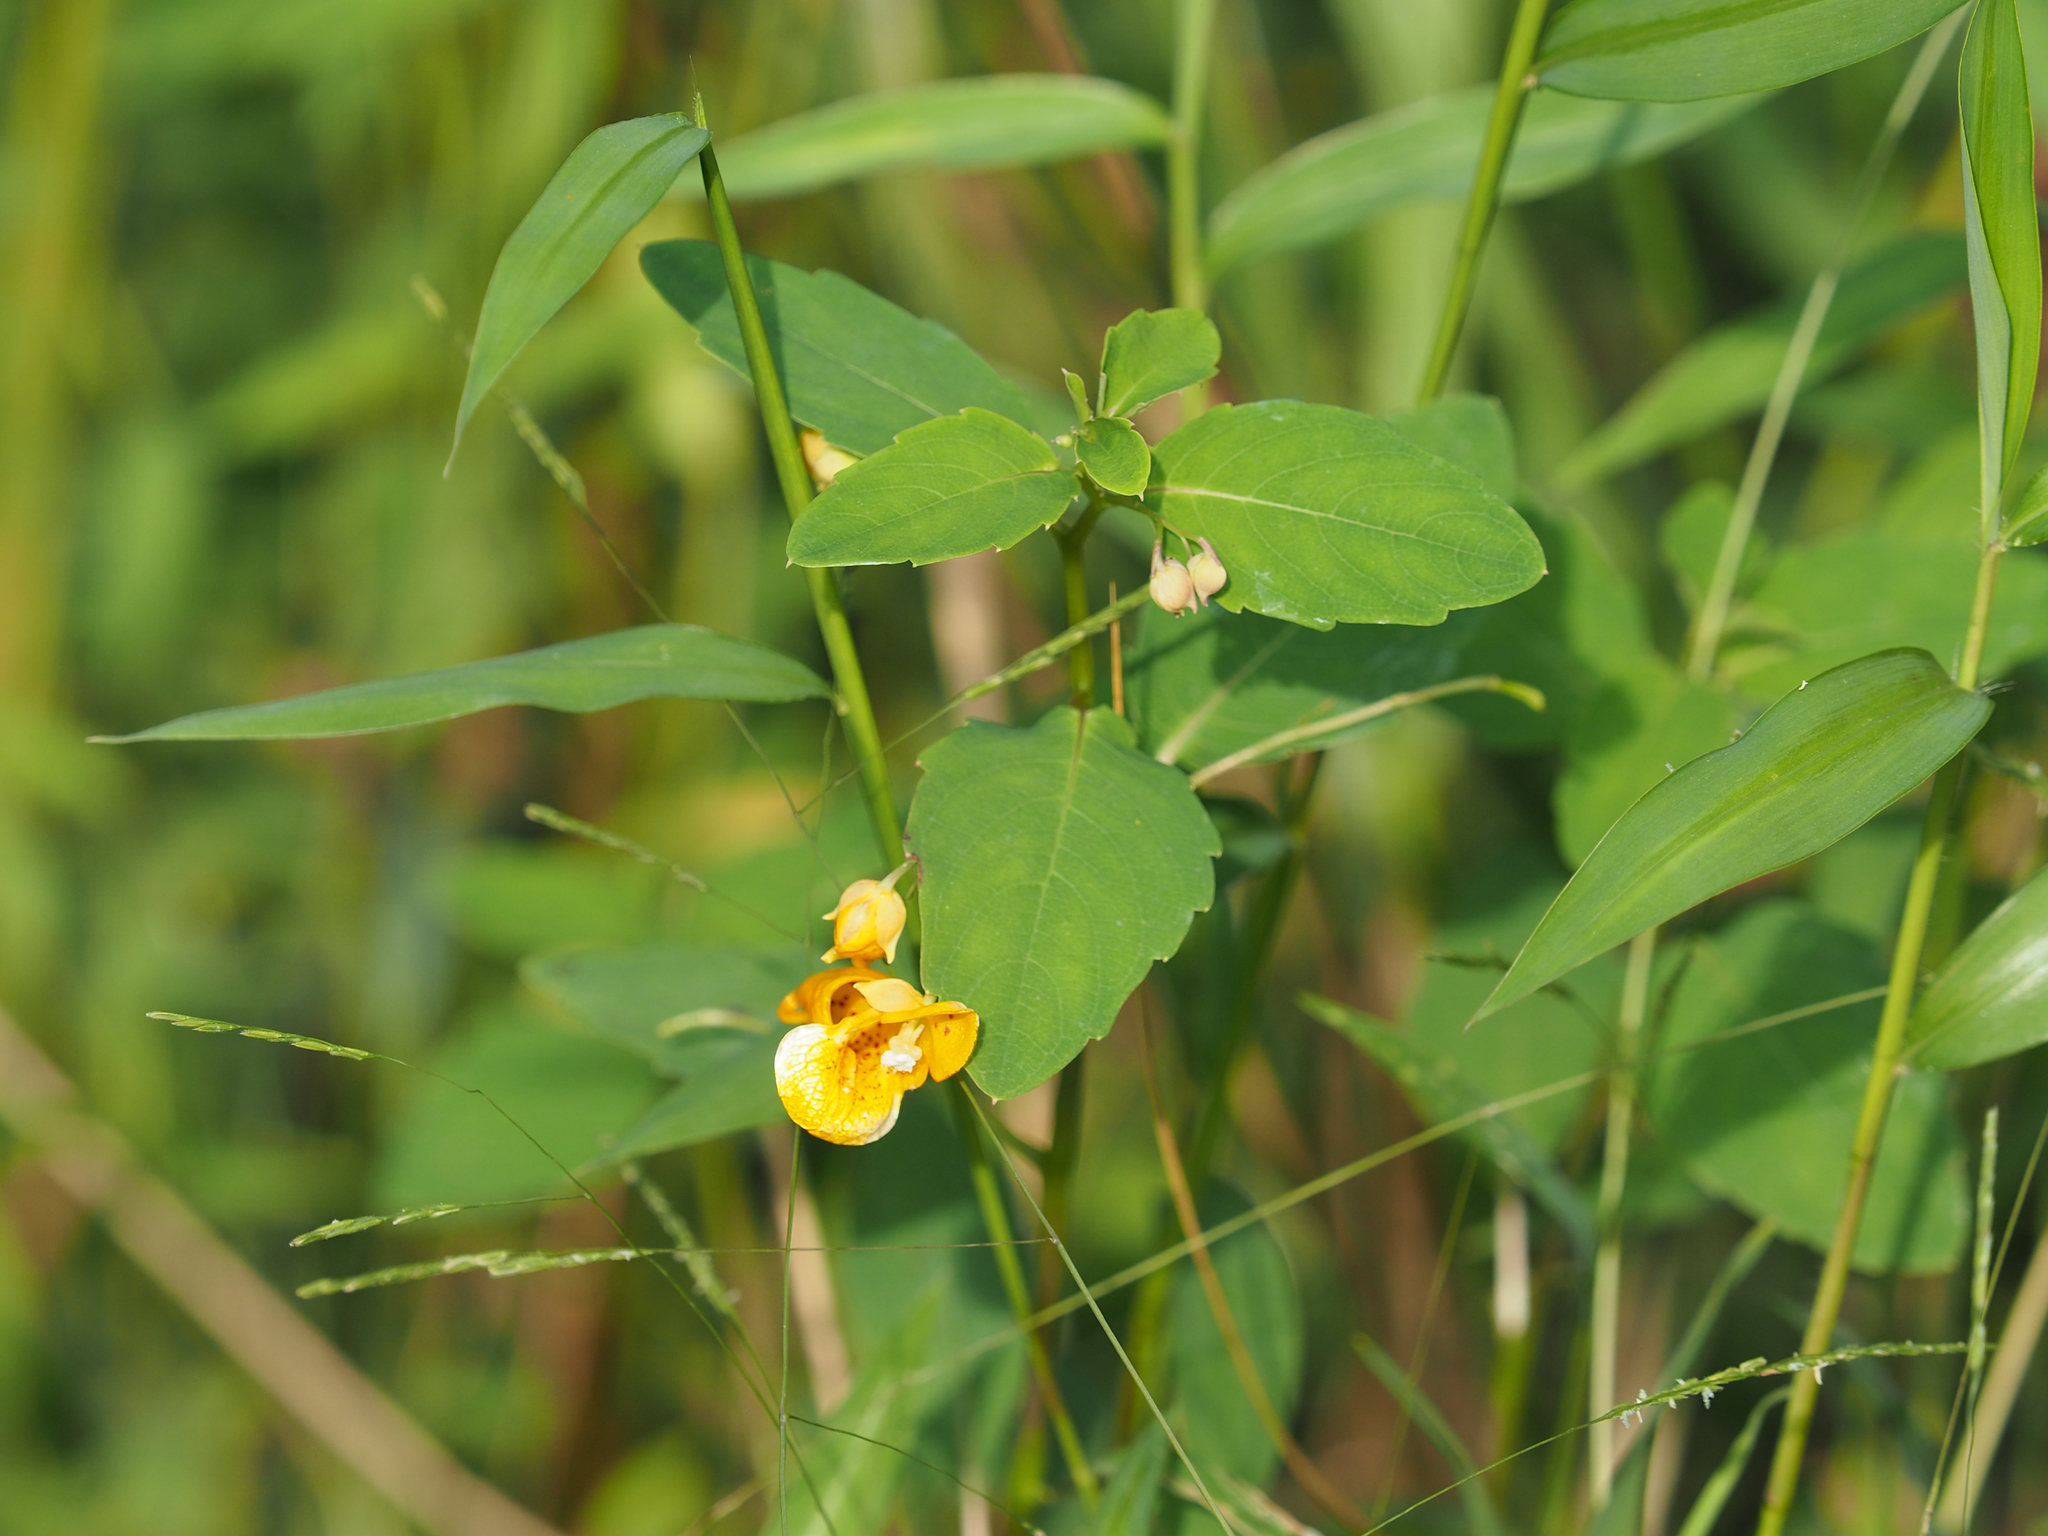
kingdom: Plantae
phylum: Tracheophyta
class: Magnoliopsida
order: Ericales
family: Balsaminaceae
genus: Impatiens
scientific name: Impatiens capensis
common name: Orange balsam
